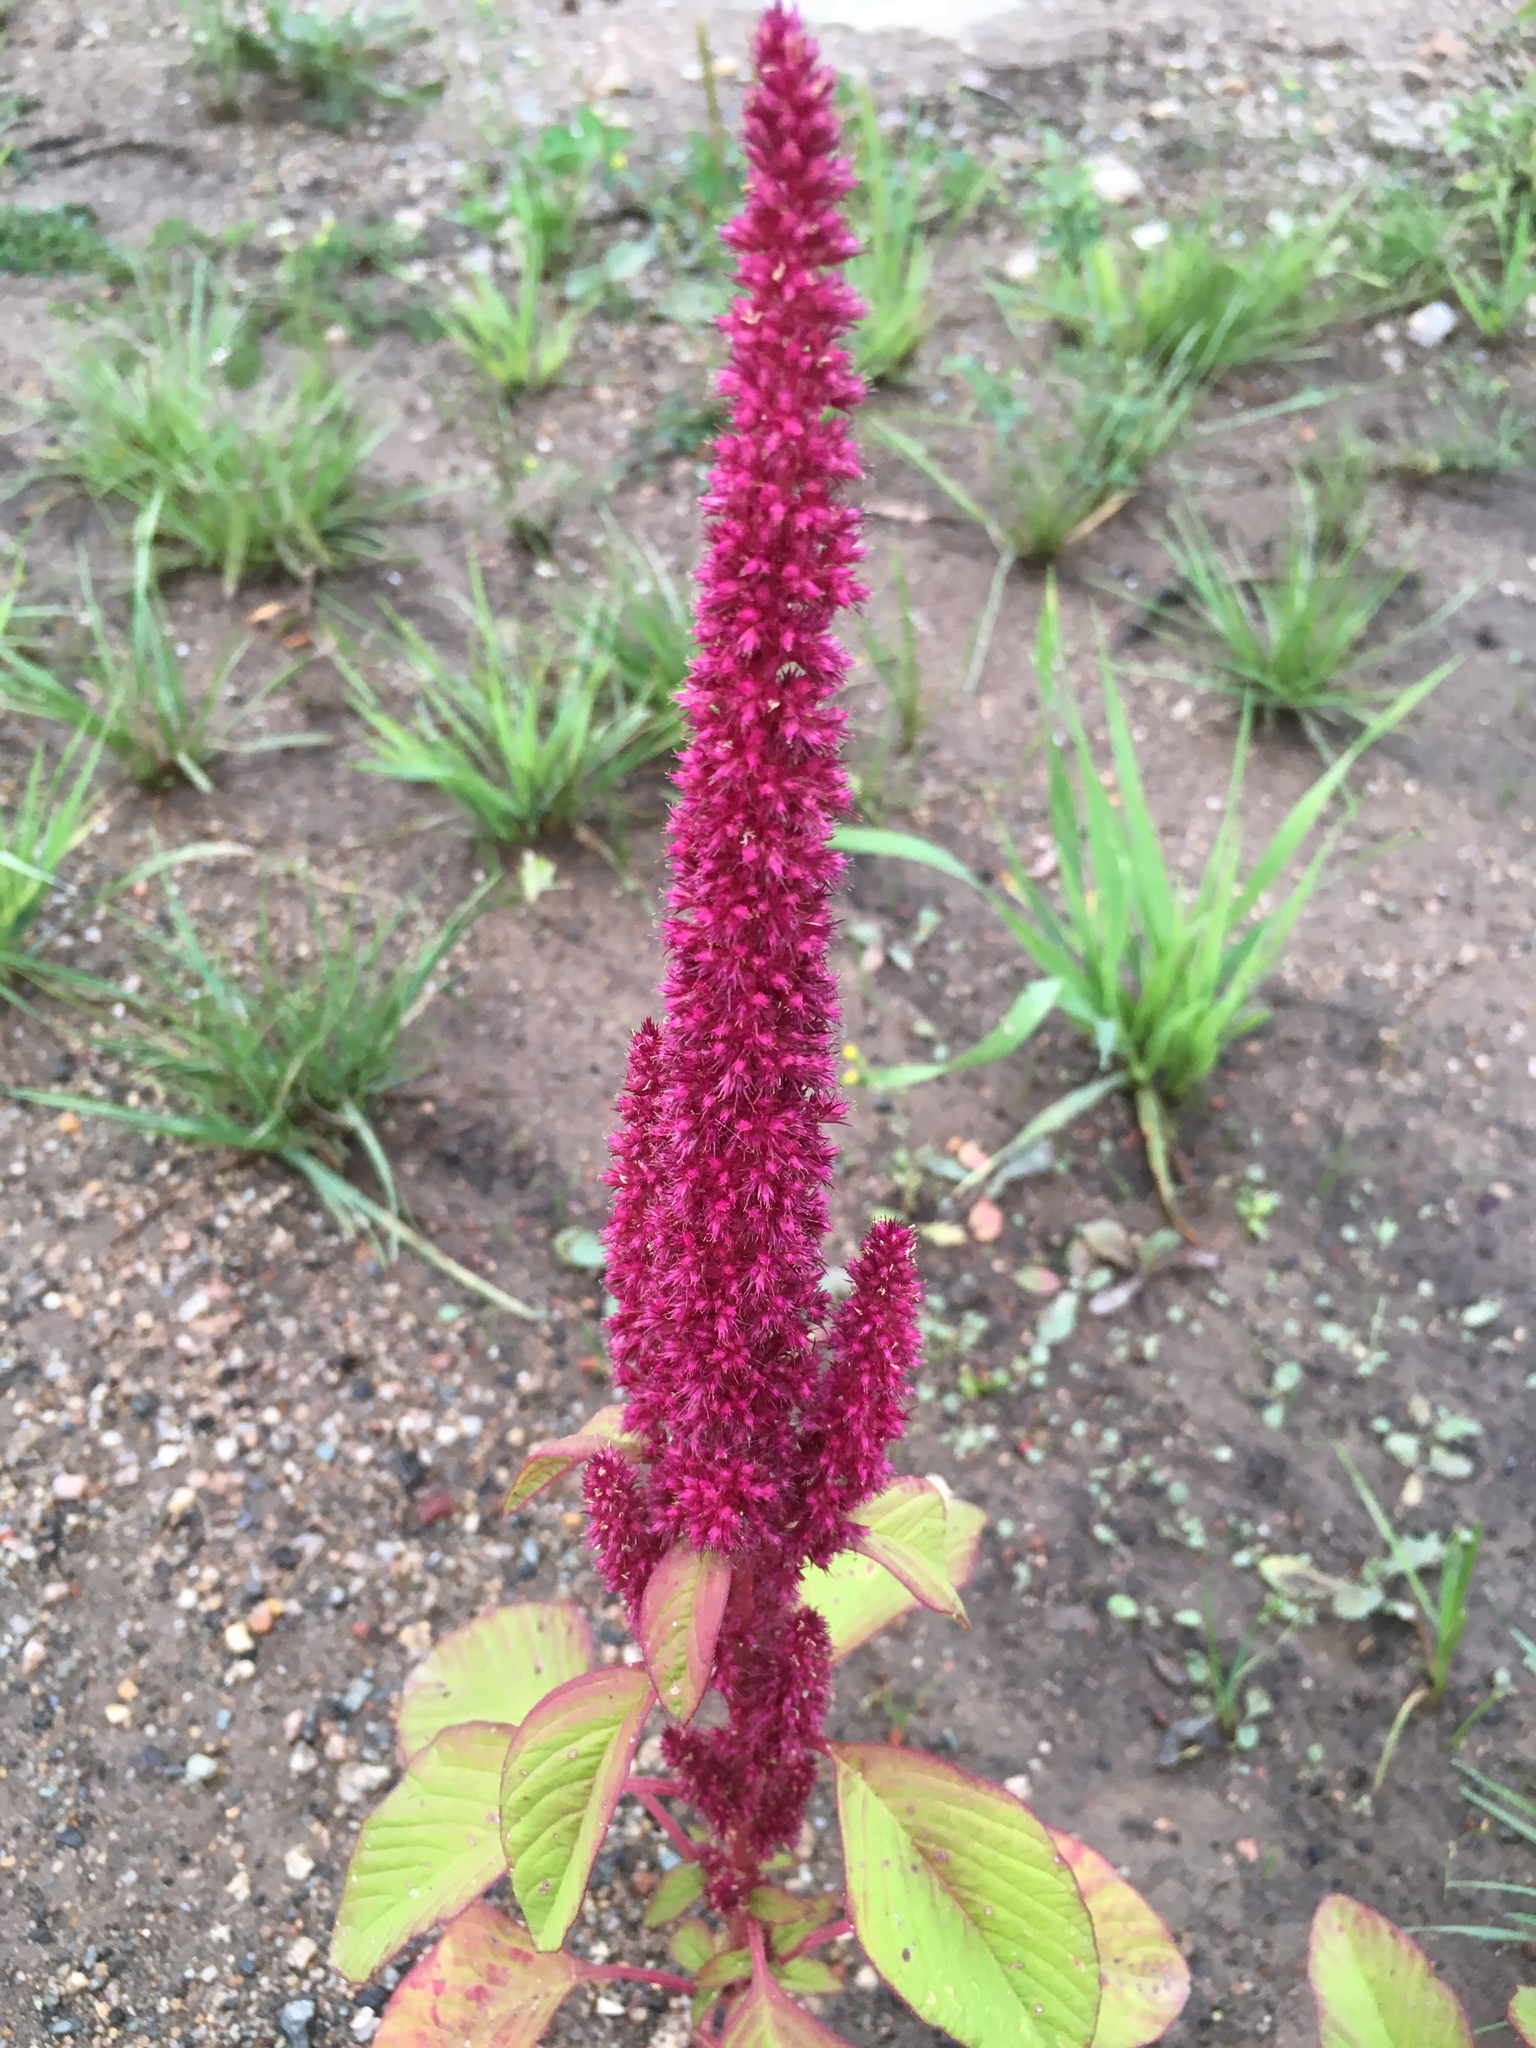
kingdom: Plantae
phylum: Tracheophyta
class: Magnoliopsida
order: Caryophyllales
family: Amaranthaceae
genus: Amaranthus
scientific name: Amaranthus cruentus
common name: Purple amaranth
